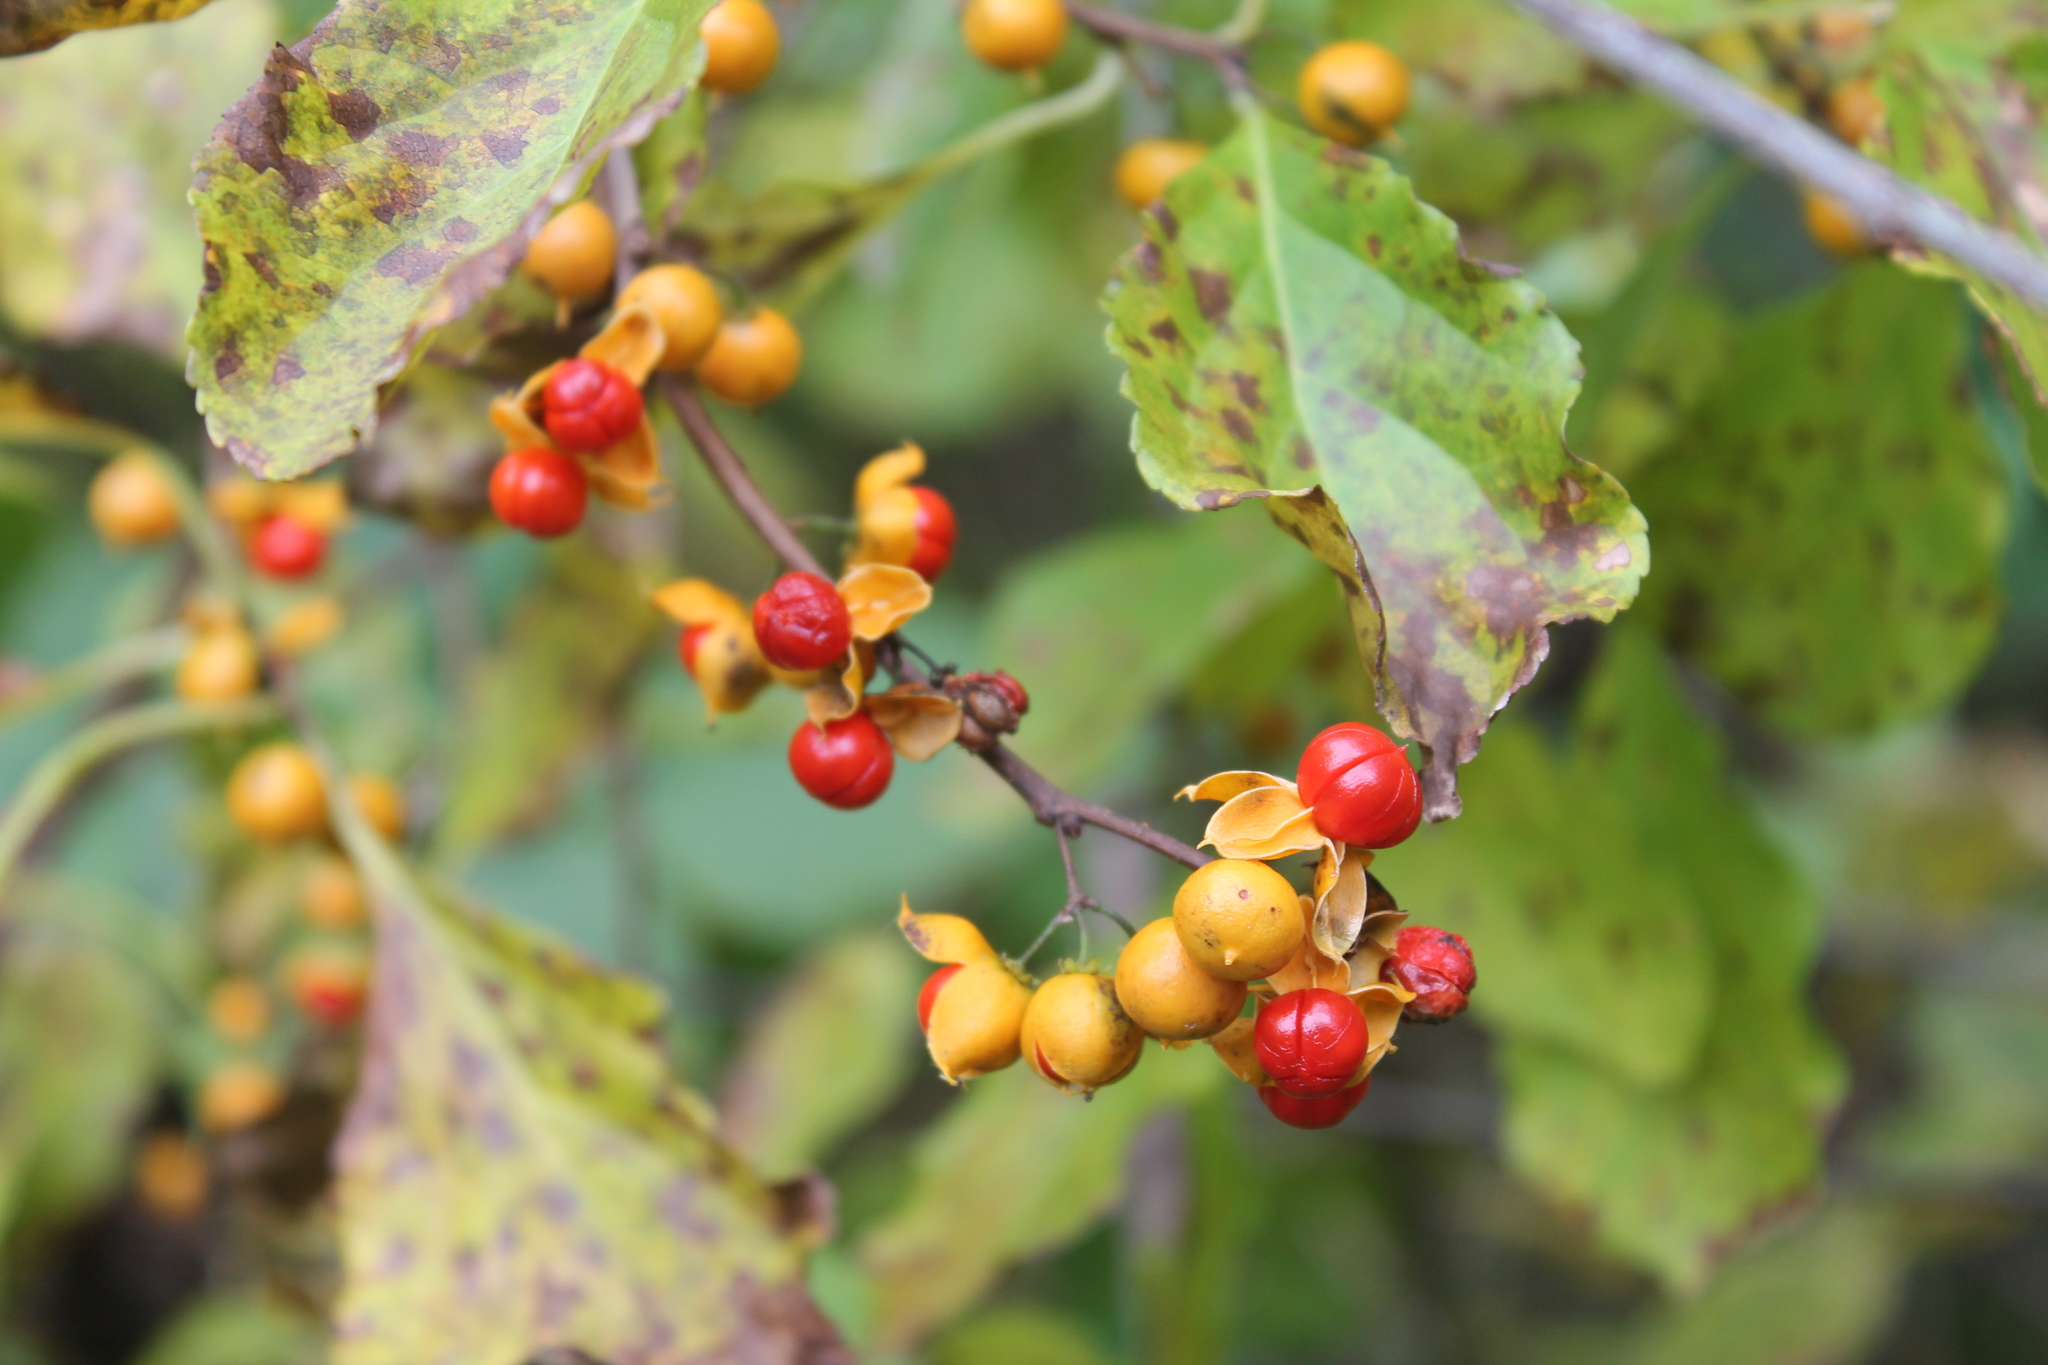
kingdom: Plantae
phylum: Tracheophyta
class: Magnoliopsida
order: Celastrales
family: Celastraceae
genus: Celastrus
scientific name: Celastrus orbiculatus
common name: Oriental bittersweet
